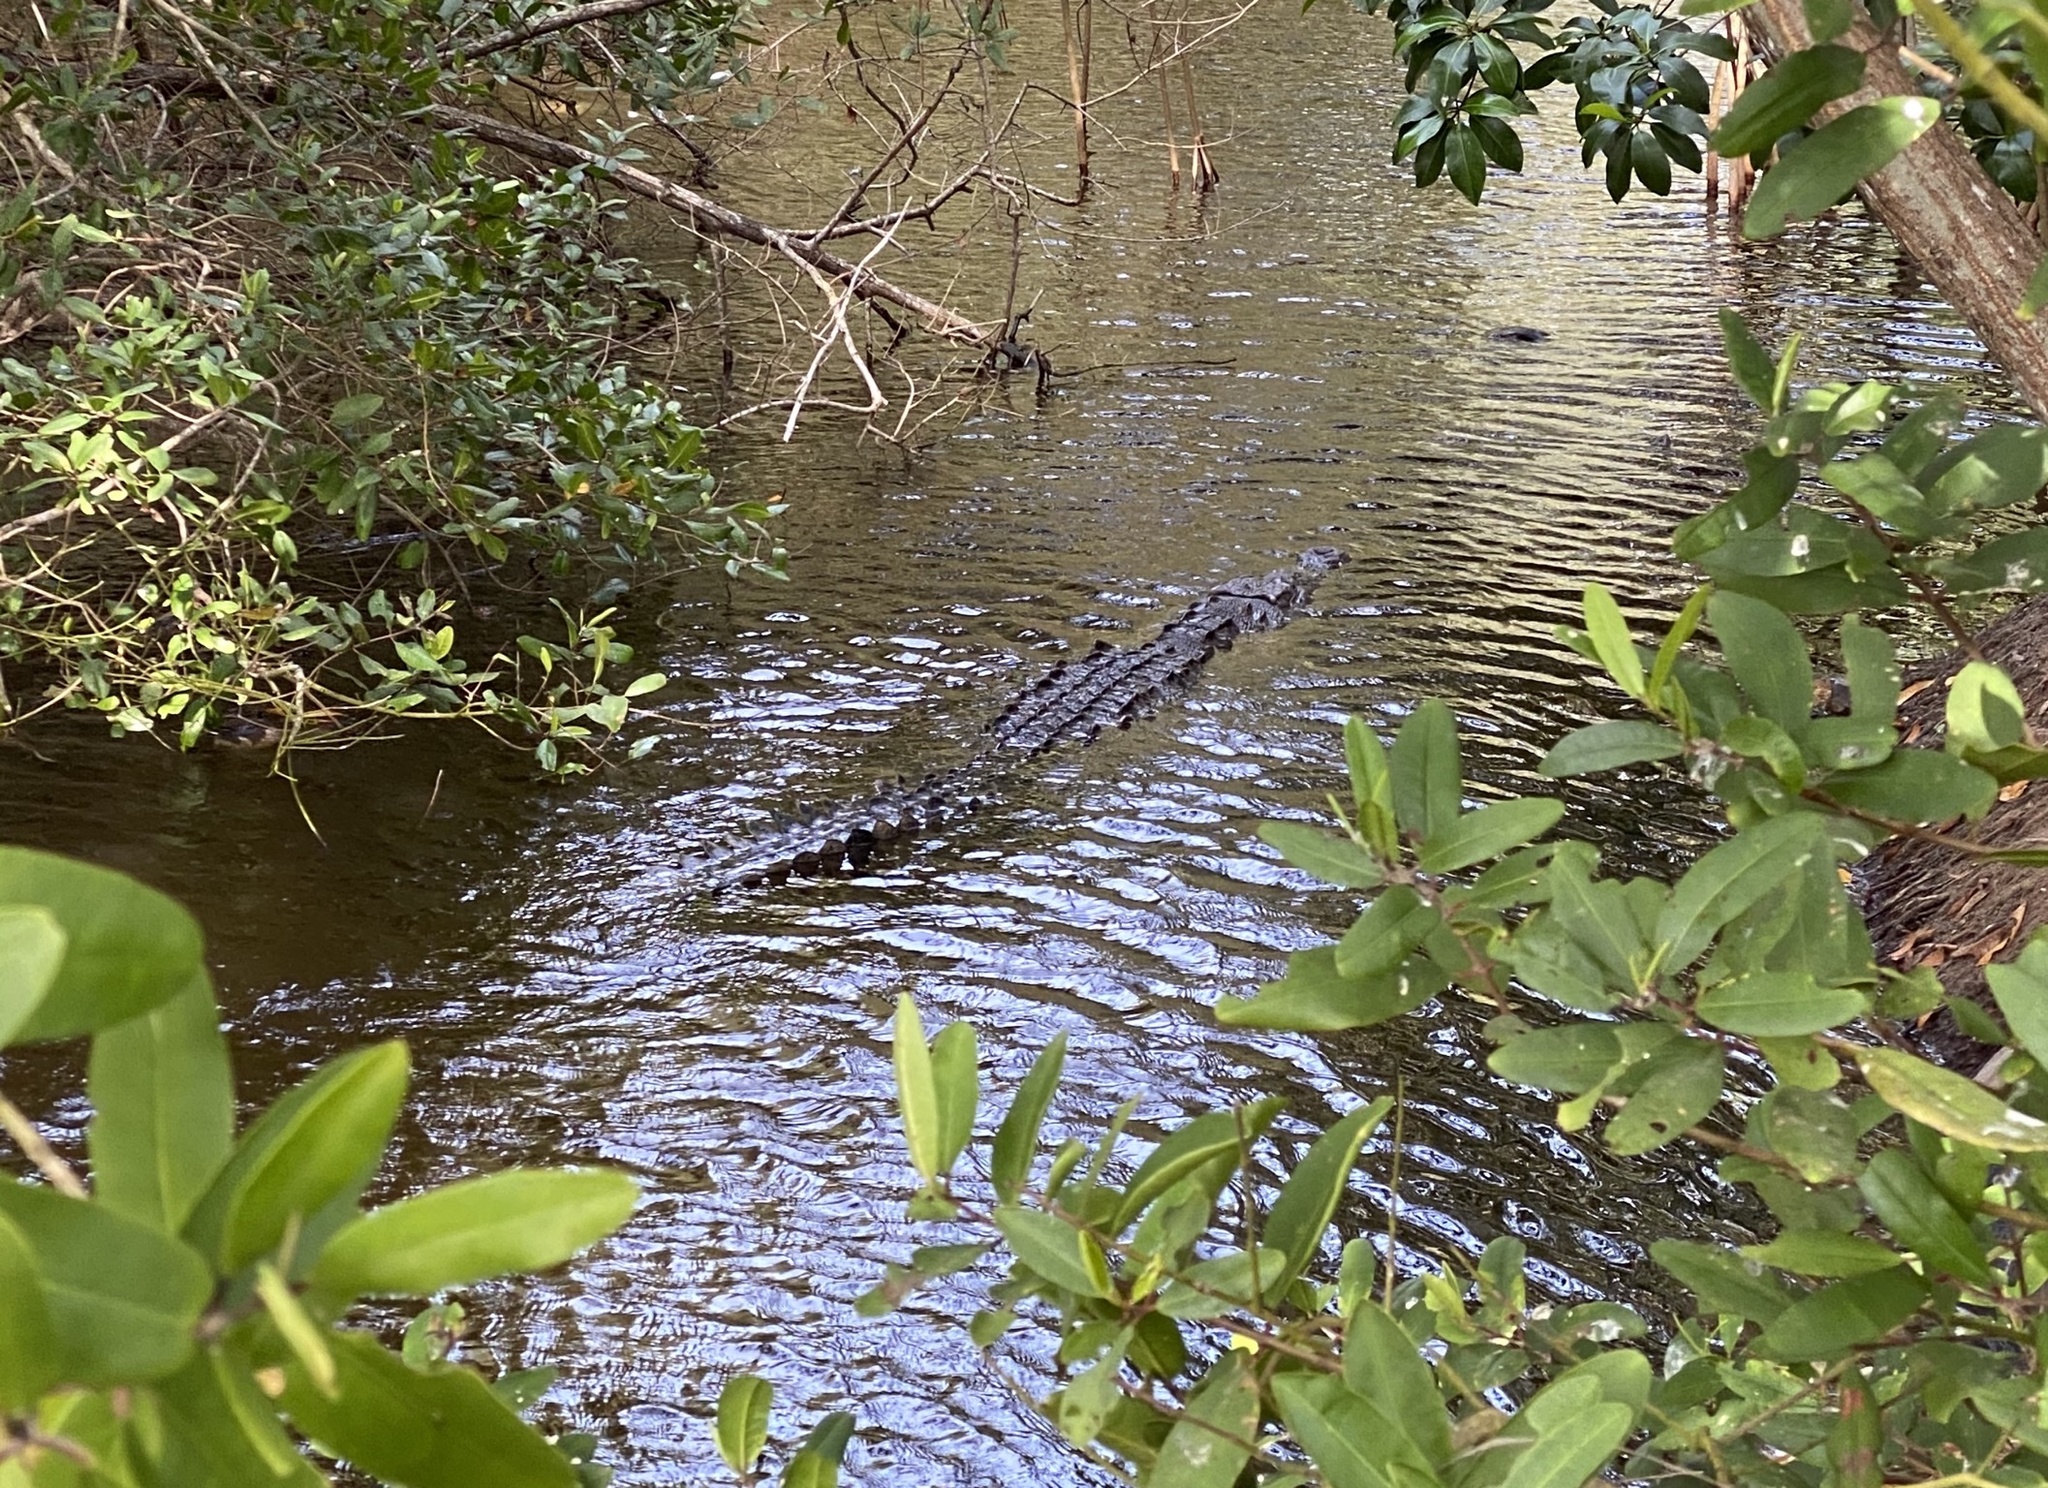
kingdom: Animalia
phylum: Chordata
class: Crocodylia
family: Crocodylidae
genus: Crocodylus
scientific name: Crocodylus acutus
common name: American crocodile
